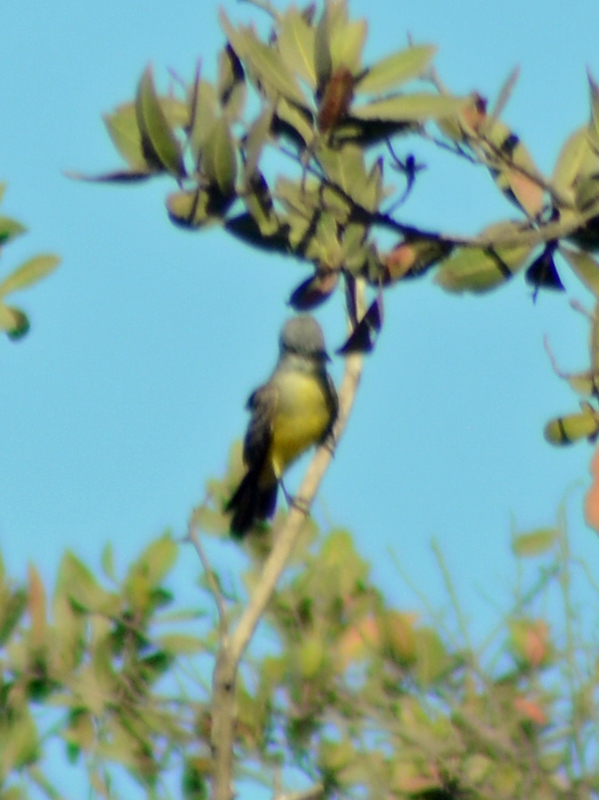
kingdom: Animalia
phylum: Chordata
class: Aves
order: Passeriformes
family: Tyrannidae
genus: Tyrannus
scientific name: Tyrannus melancholicus
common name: Tropical kingbird
